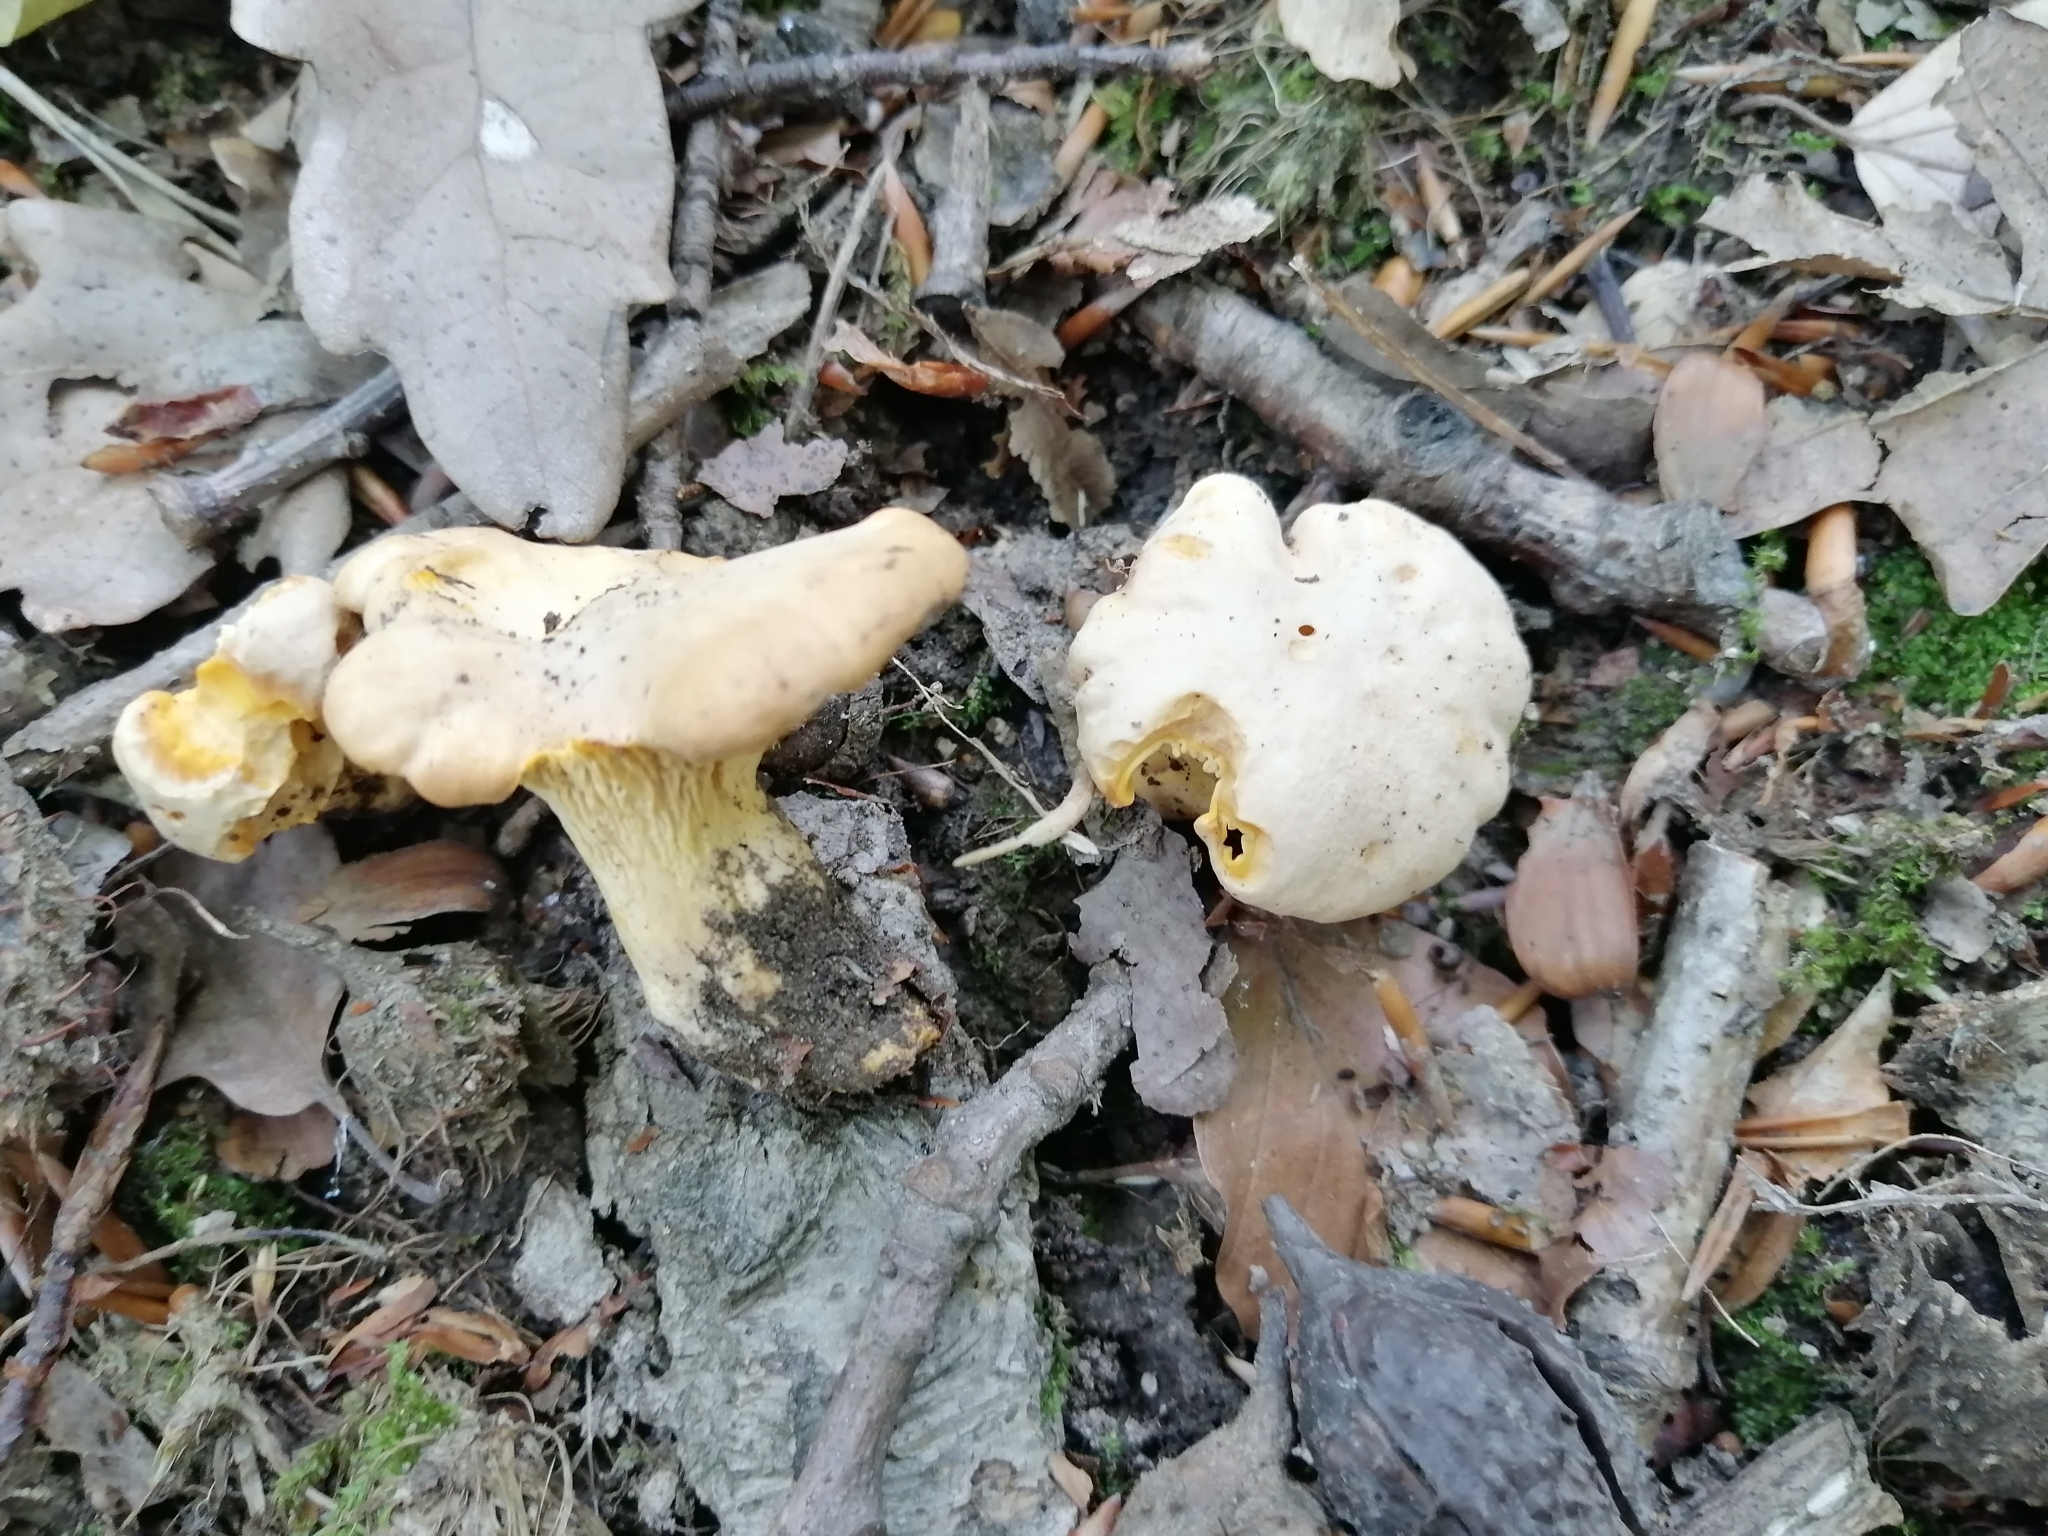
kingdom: Fungi
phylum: Basidiomycota
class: Agaricomycetes
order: Cantharellales
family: Hydnaceae
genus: Cantharellus
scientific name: Cantharellus pallens
